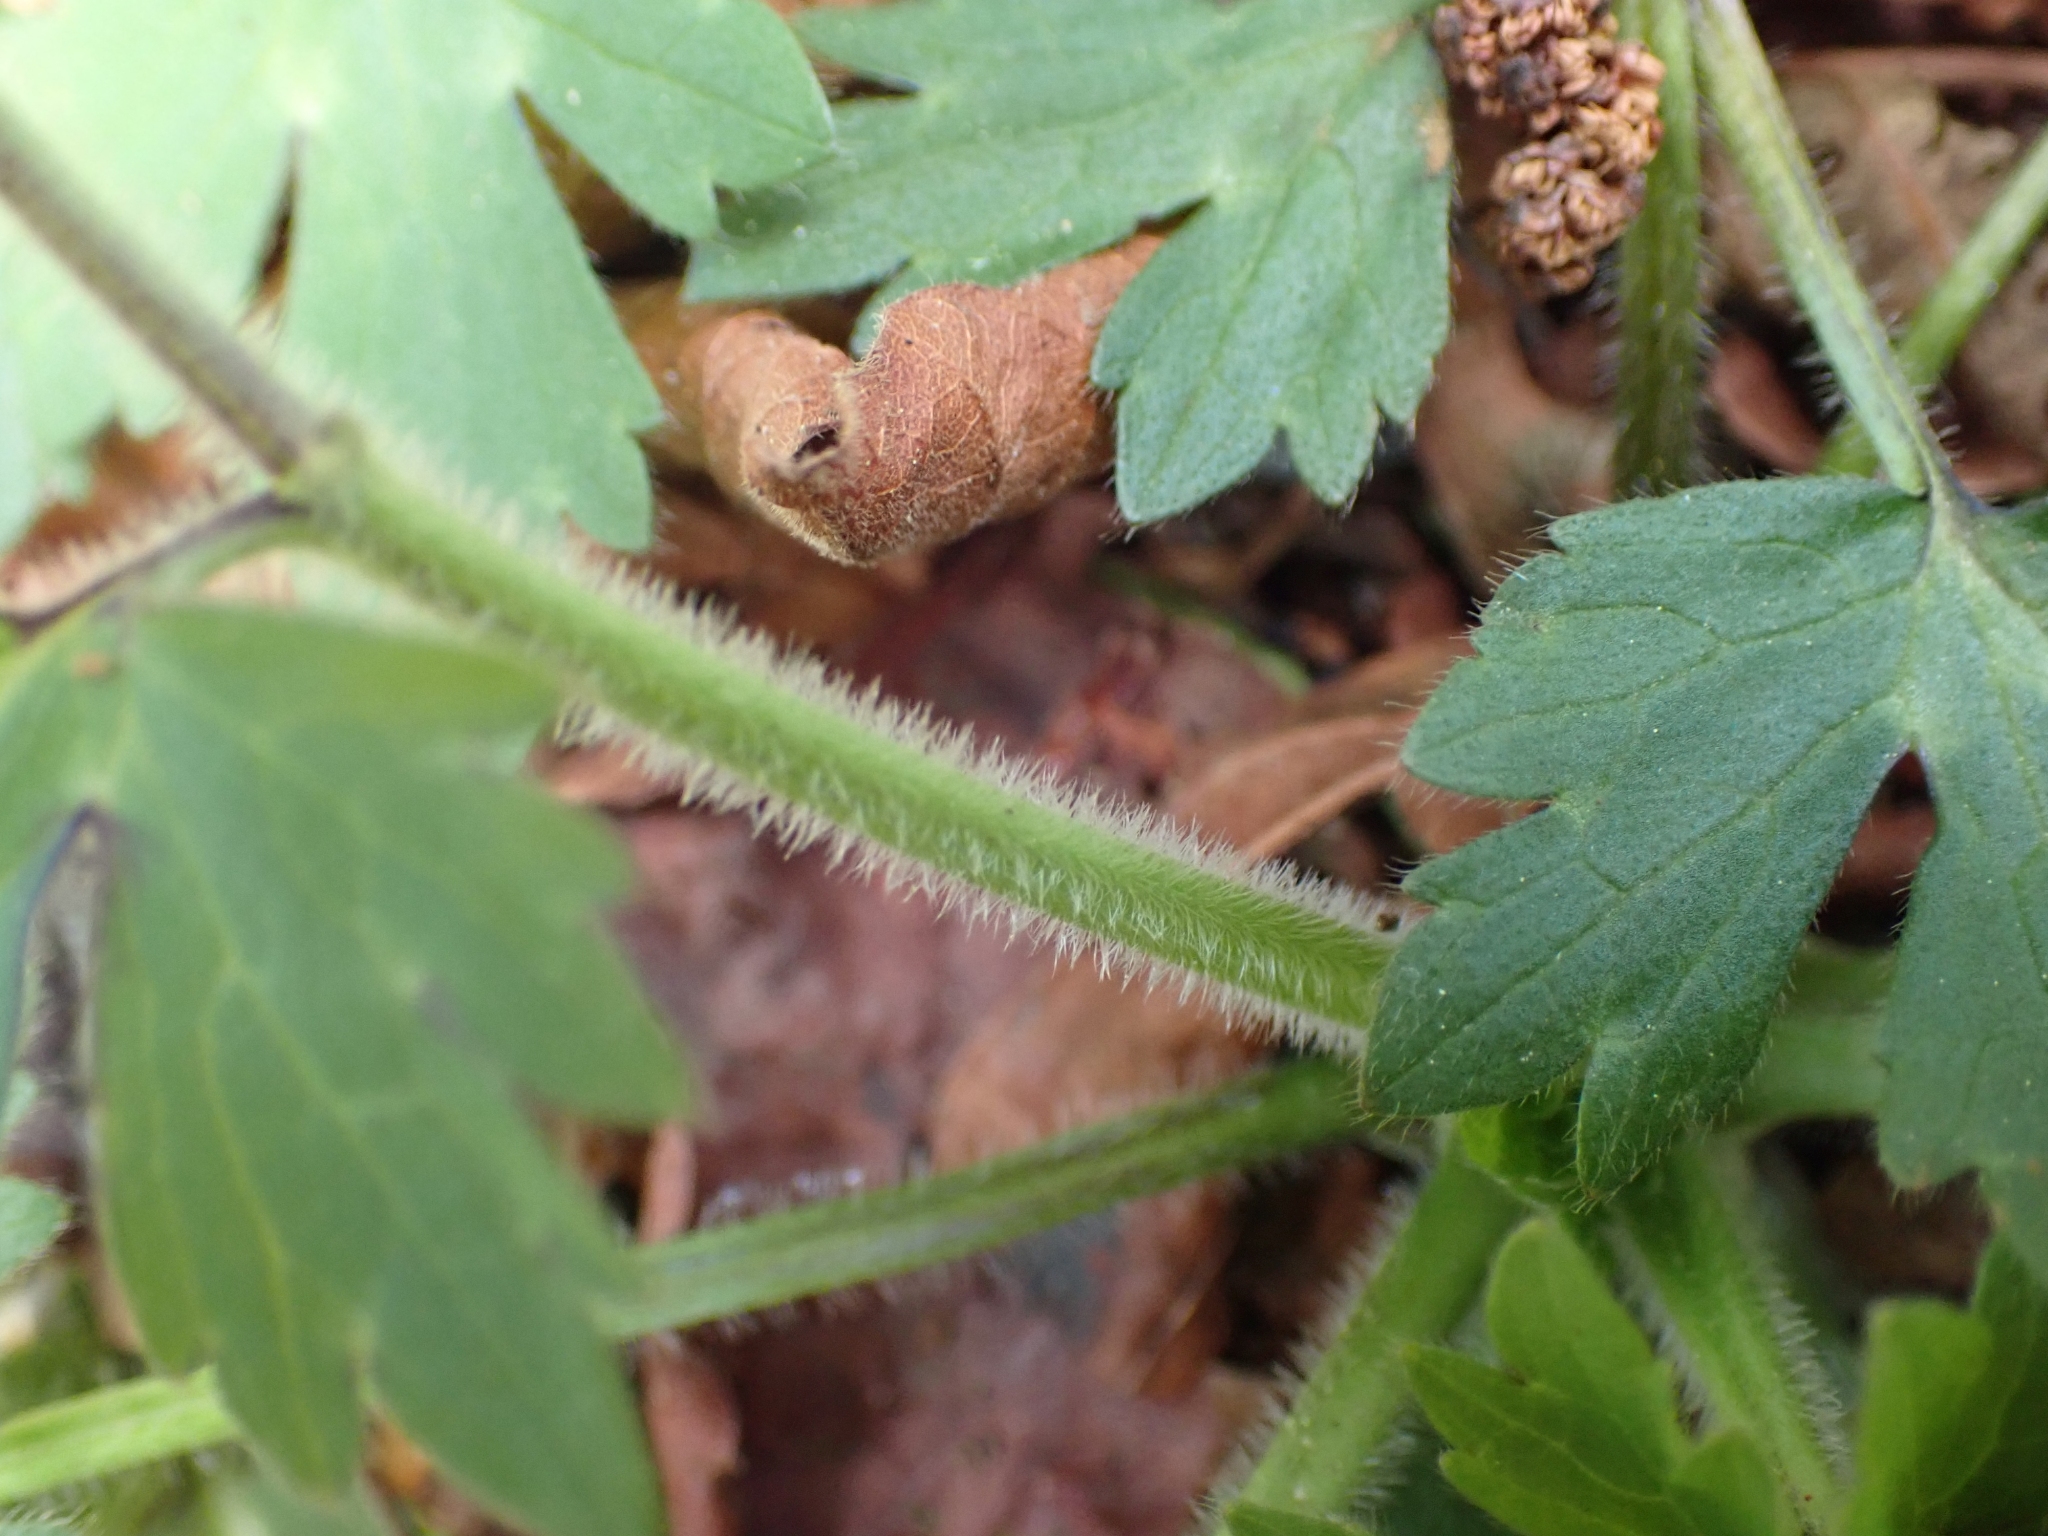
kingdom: Plantae
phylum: Tracheophyta
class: Magnoliopsida
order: Ranunculales
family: Ranunculaceae
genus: Ranunculus
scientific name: Ranunculus repens
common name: Creeping buttercup
